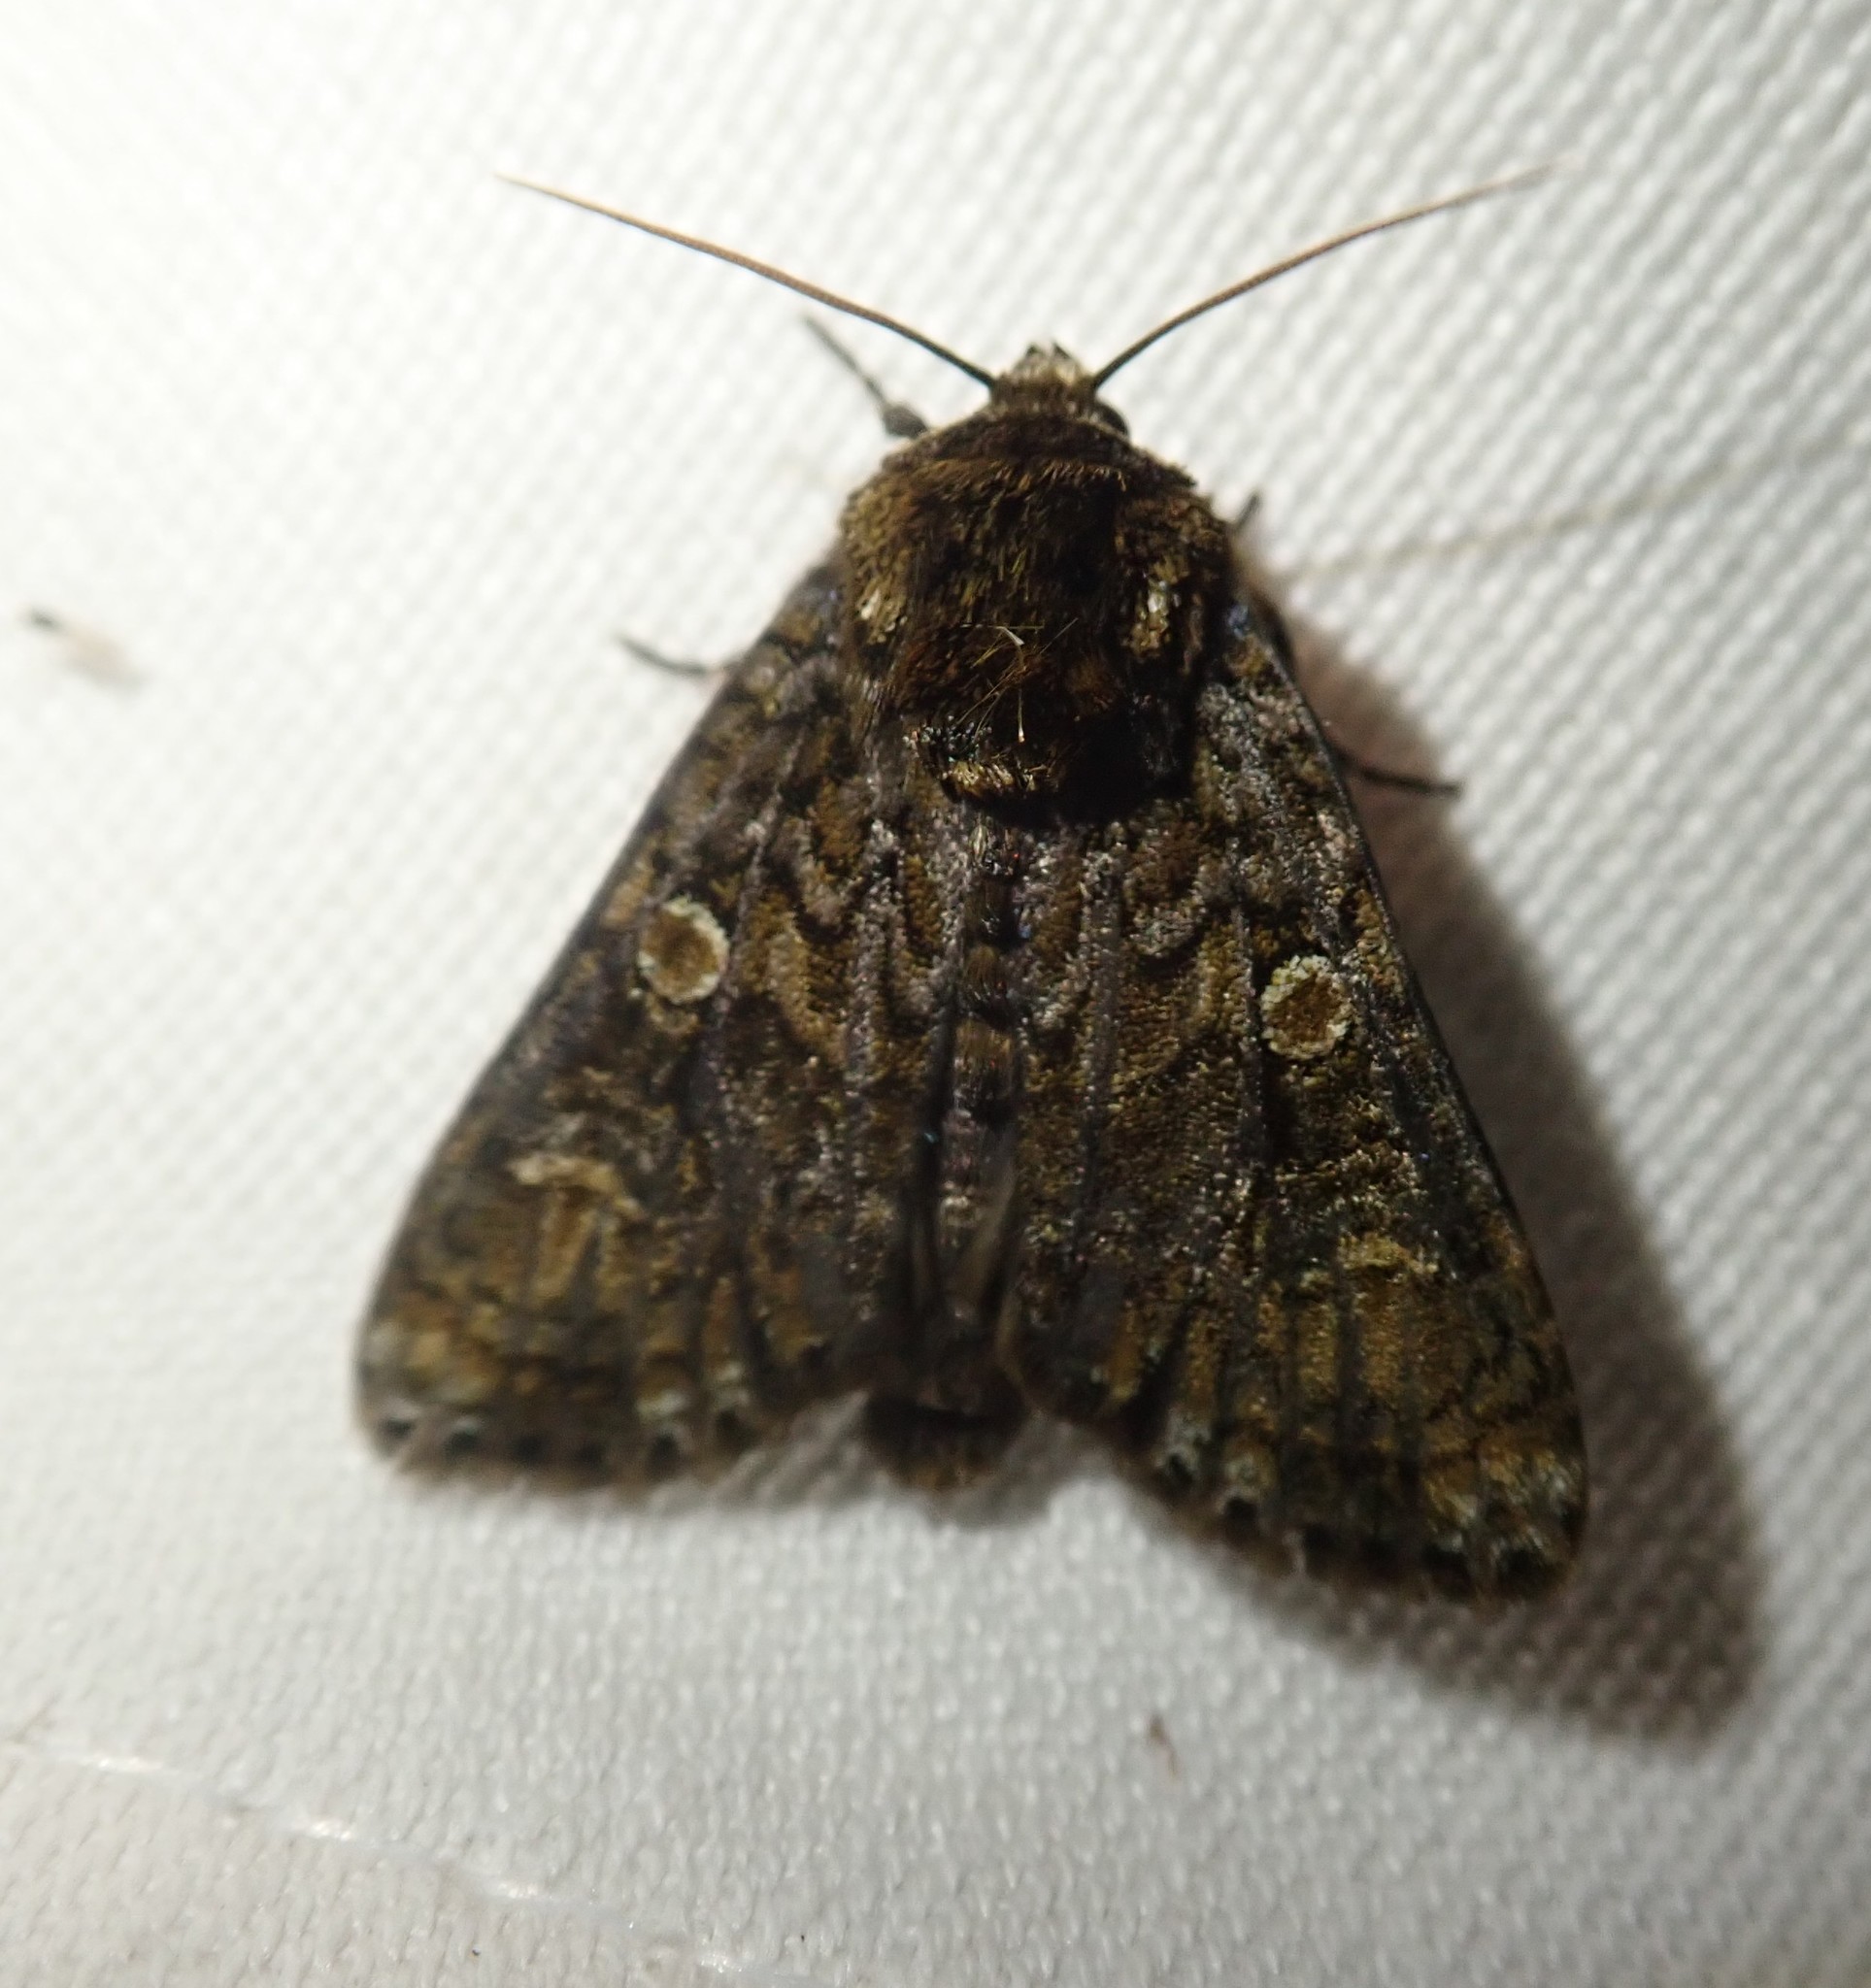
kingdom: Animalia
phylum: Arthropoda
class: Insecta
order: Lepidoptera
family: Noctuidae
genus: Craniophora
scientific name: Craniophora ligustri
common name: Coronet
